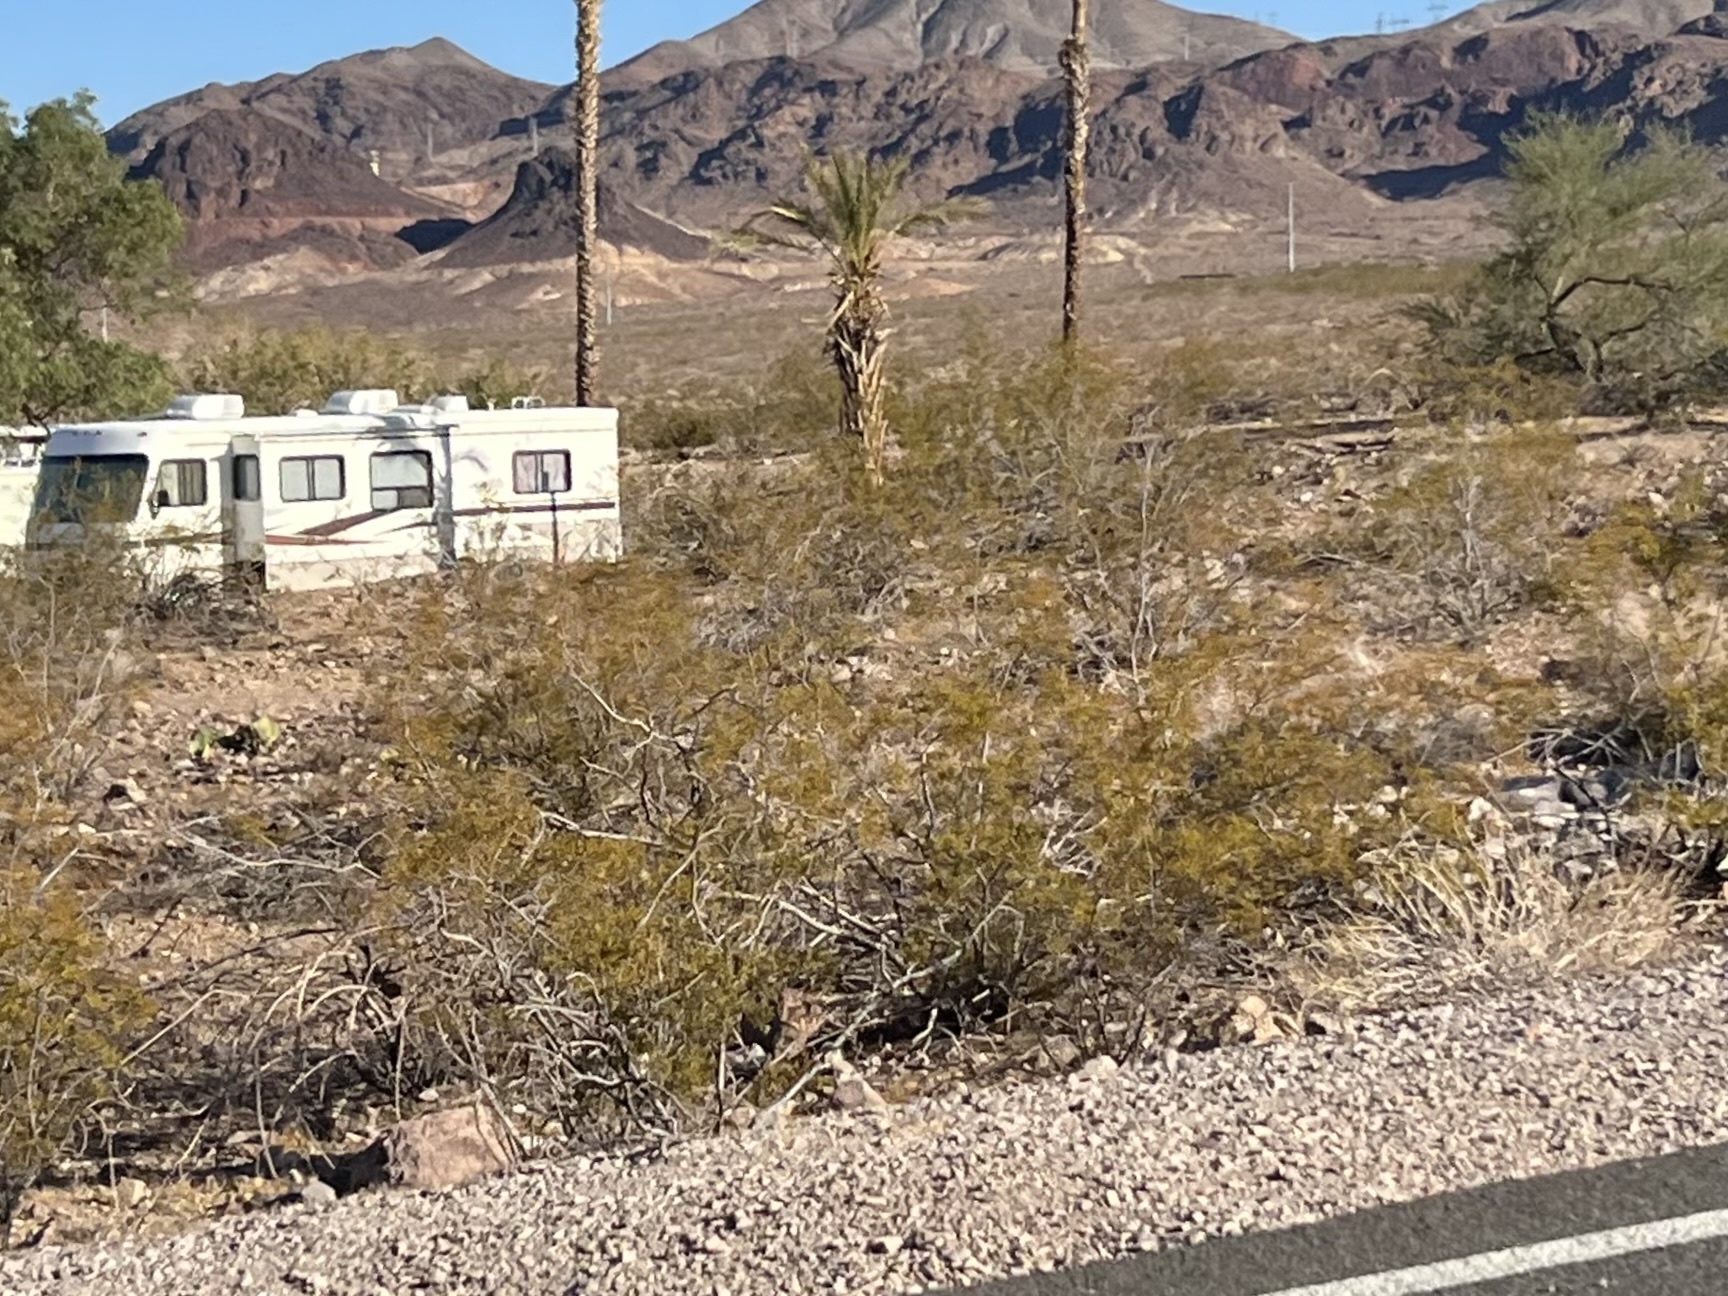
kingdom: Plantae
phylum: Tracheophyta
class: Magnoliopsida
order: Zygophyllales
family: Zygophyllaceae
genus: Larrea
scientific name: Larrea tridentata
